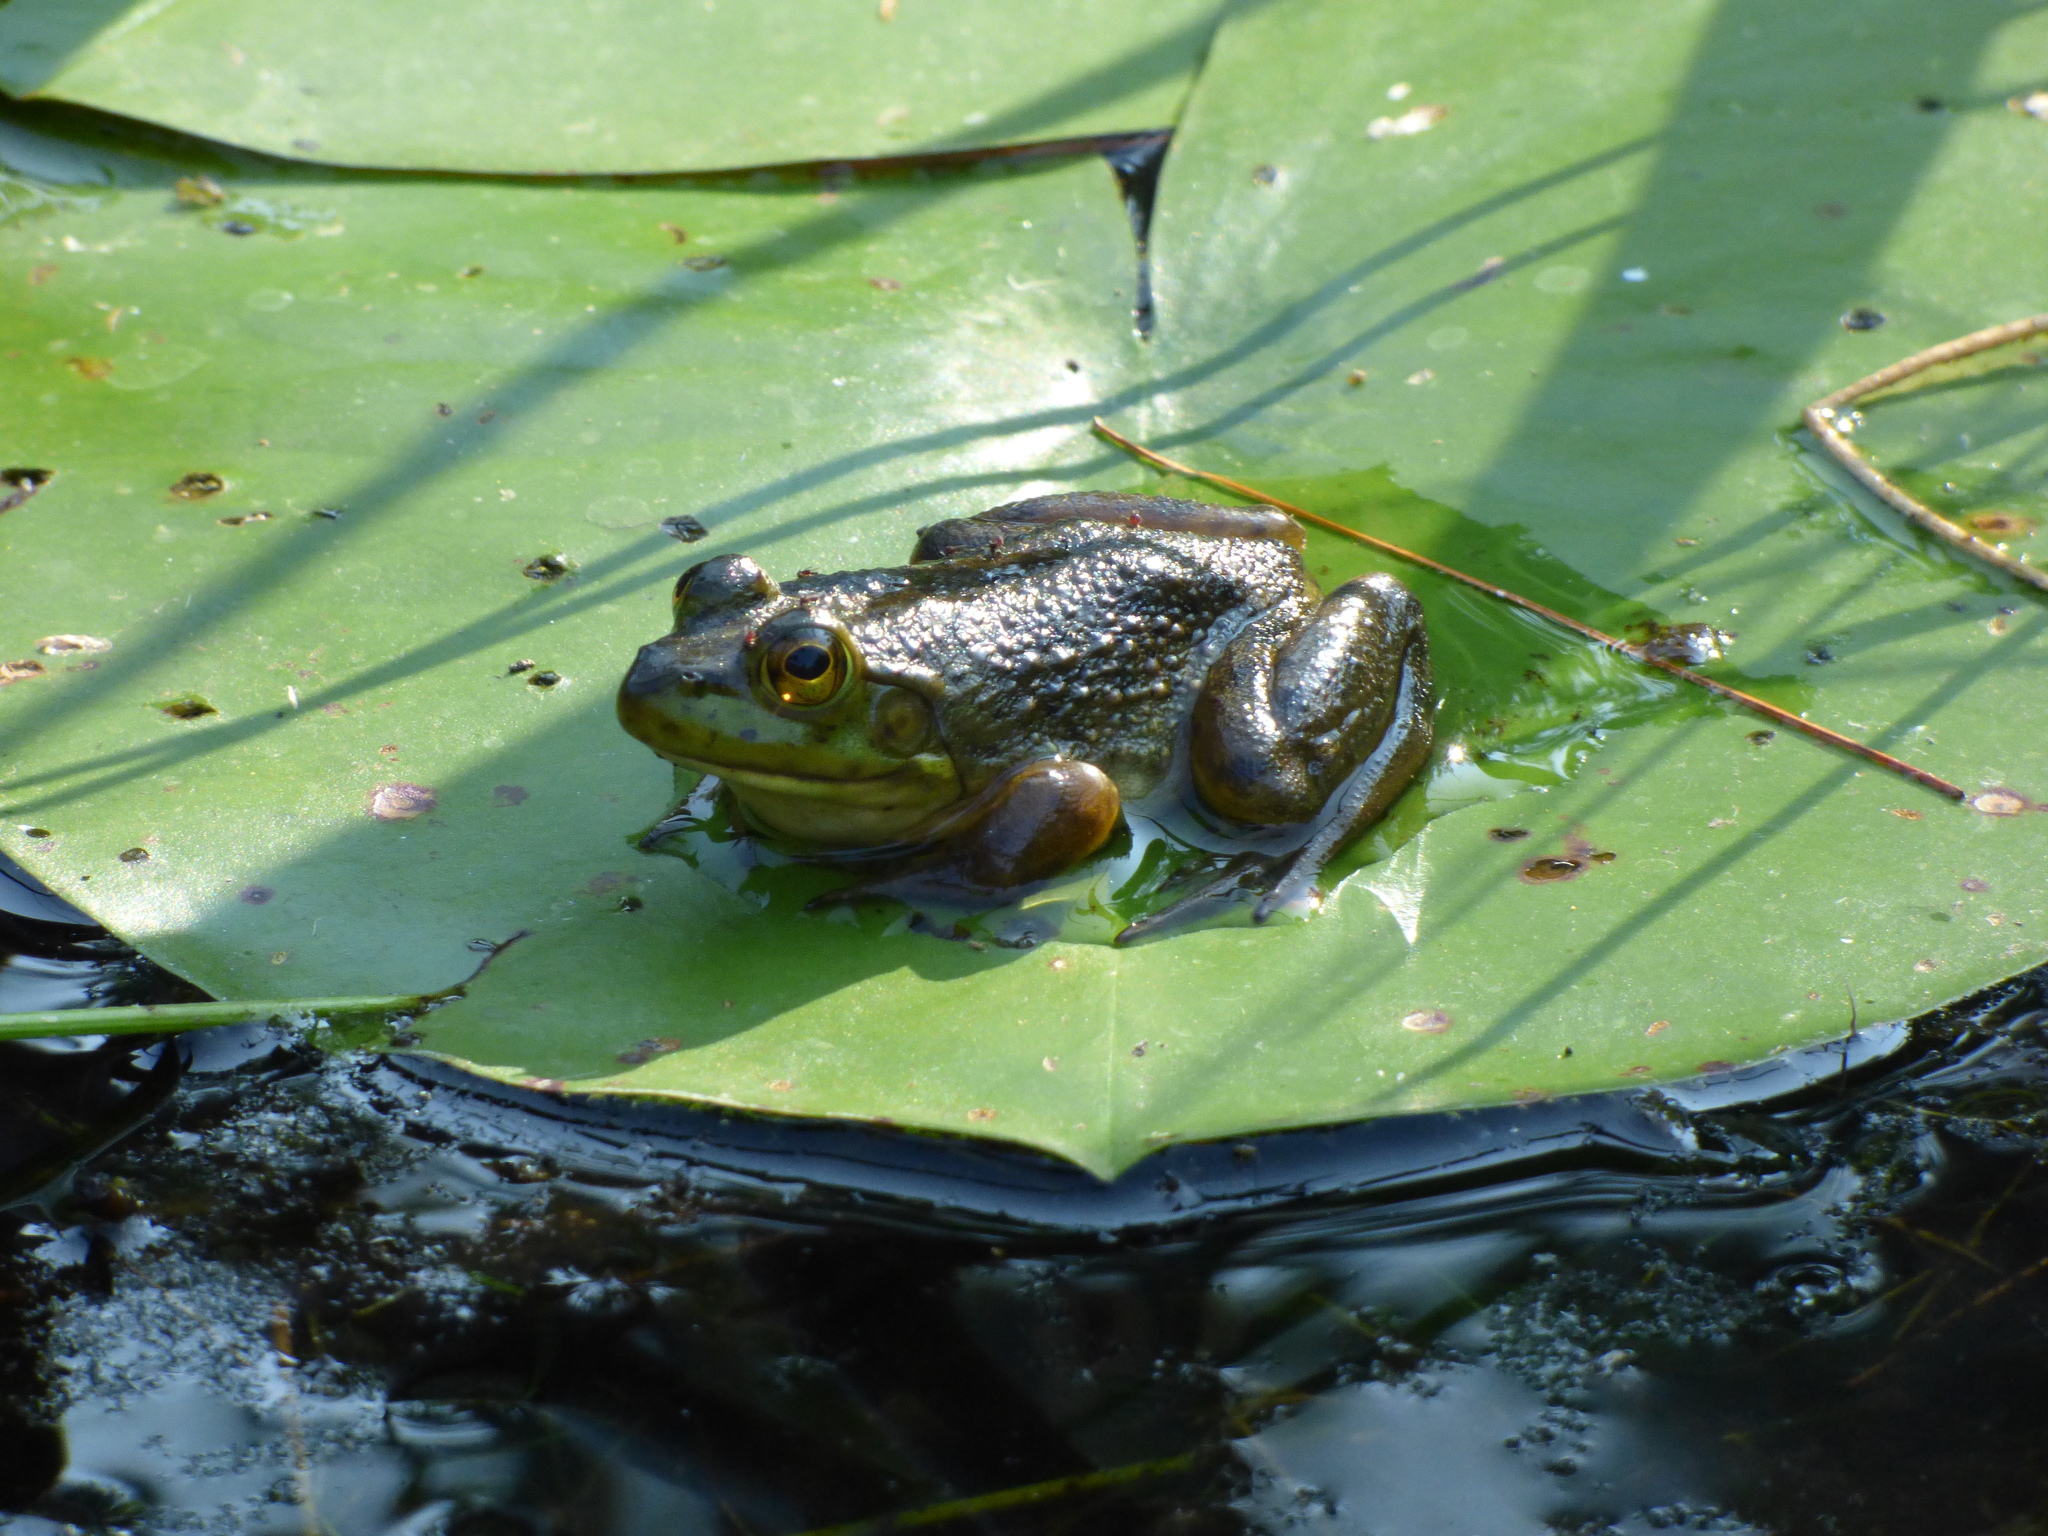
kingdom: Animalia
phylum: Chordata
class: Amphibia
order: Anura
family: Ranidae
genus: Lithobates
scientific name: Lithobates catesbeianus
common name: American bullfrog
